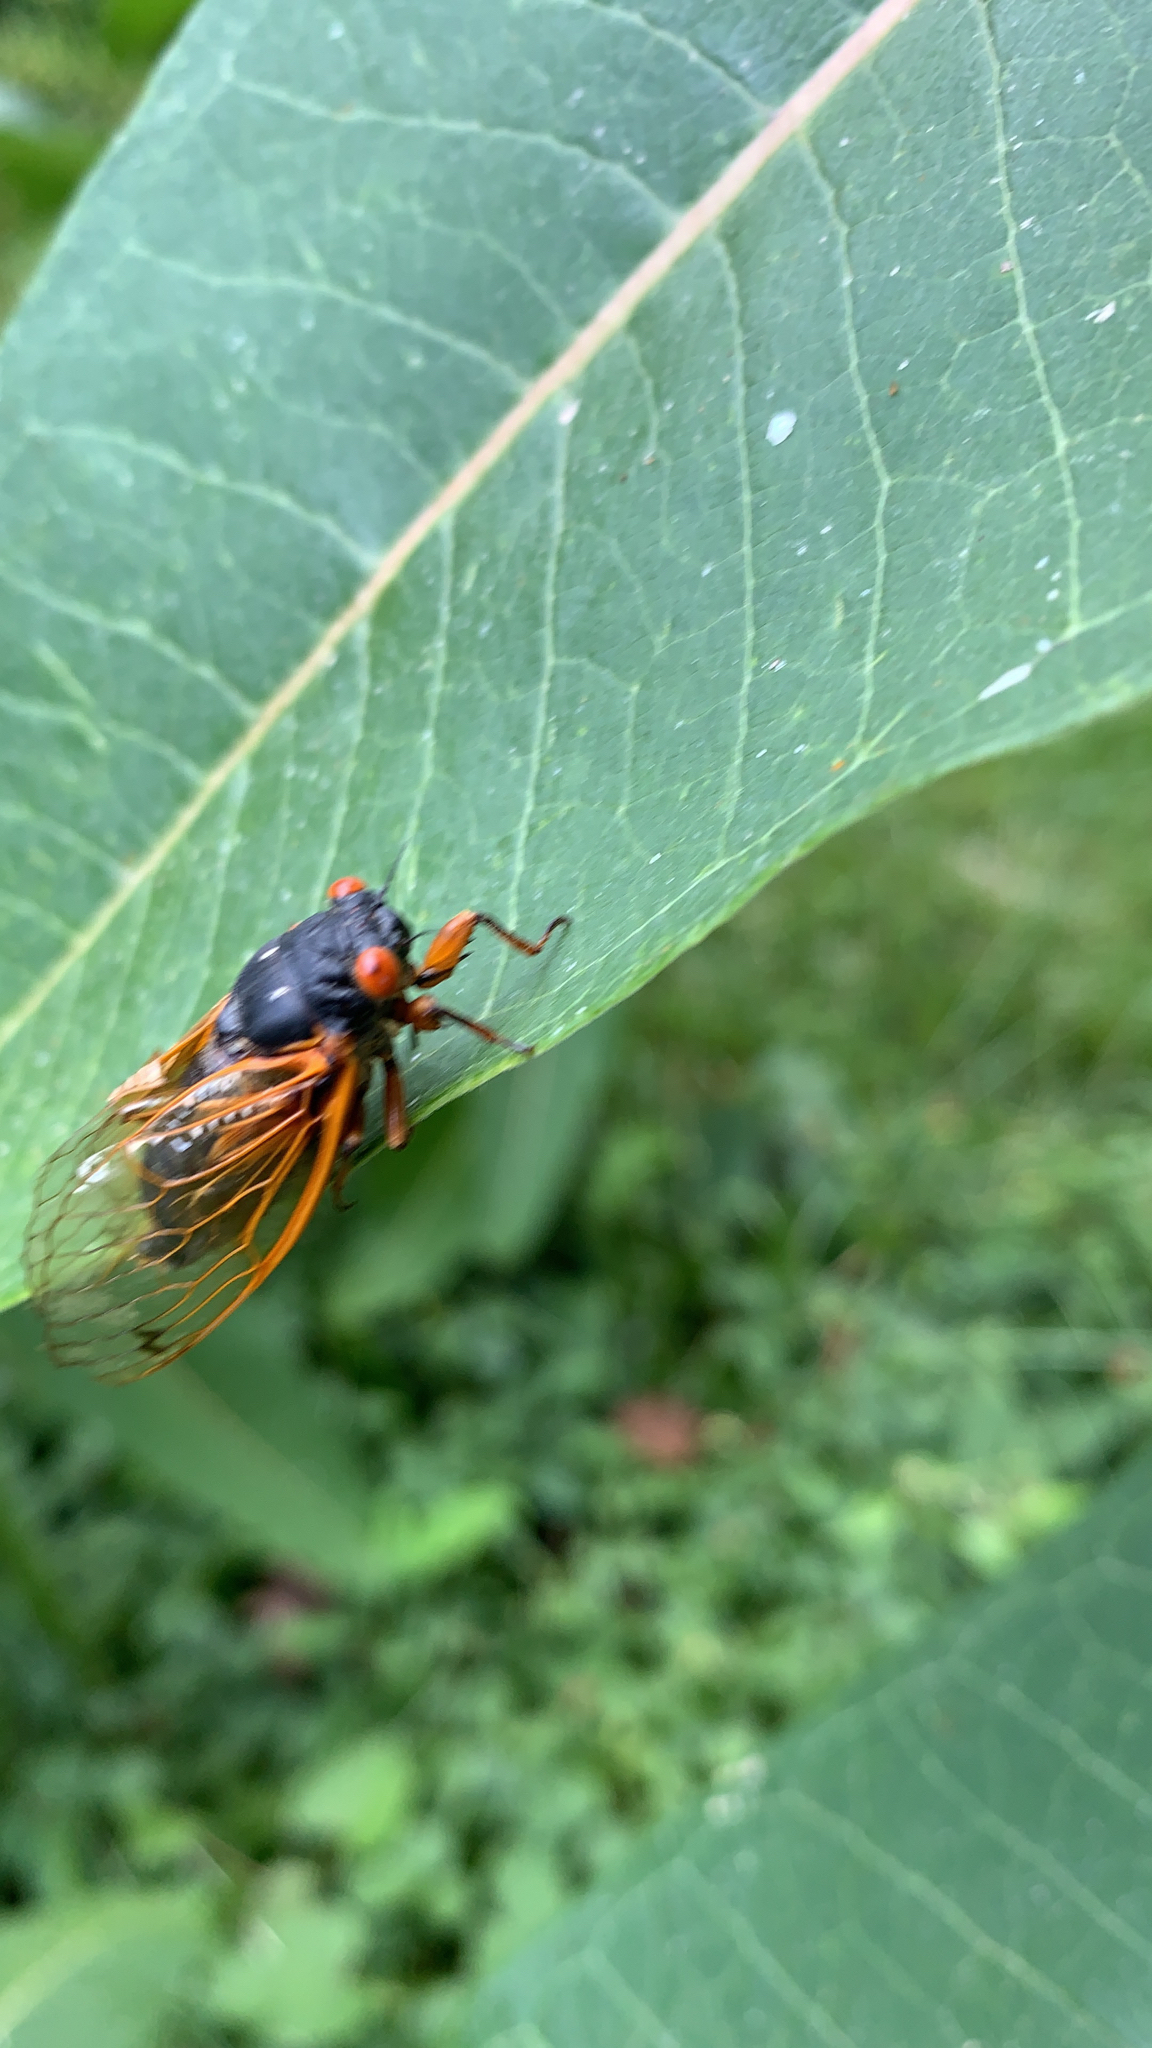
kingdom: Animalia
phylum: Arthropoda
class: Insecta
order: Hemiptera
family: Cicadidae
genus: Magicicada
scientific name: Magicicada
